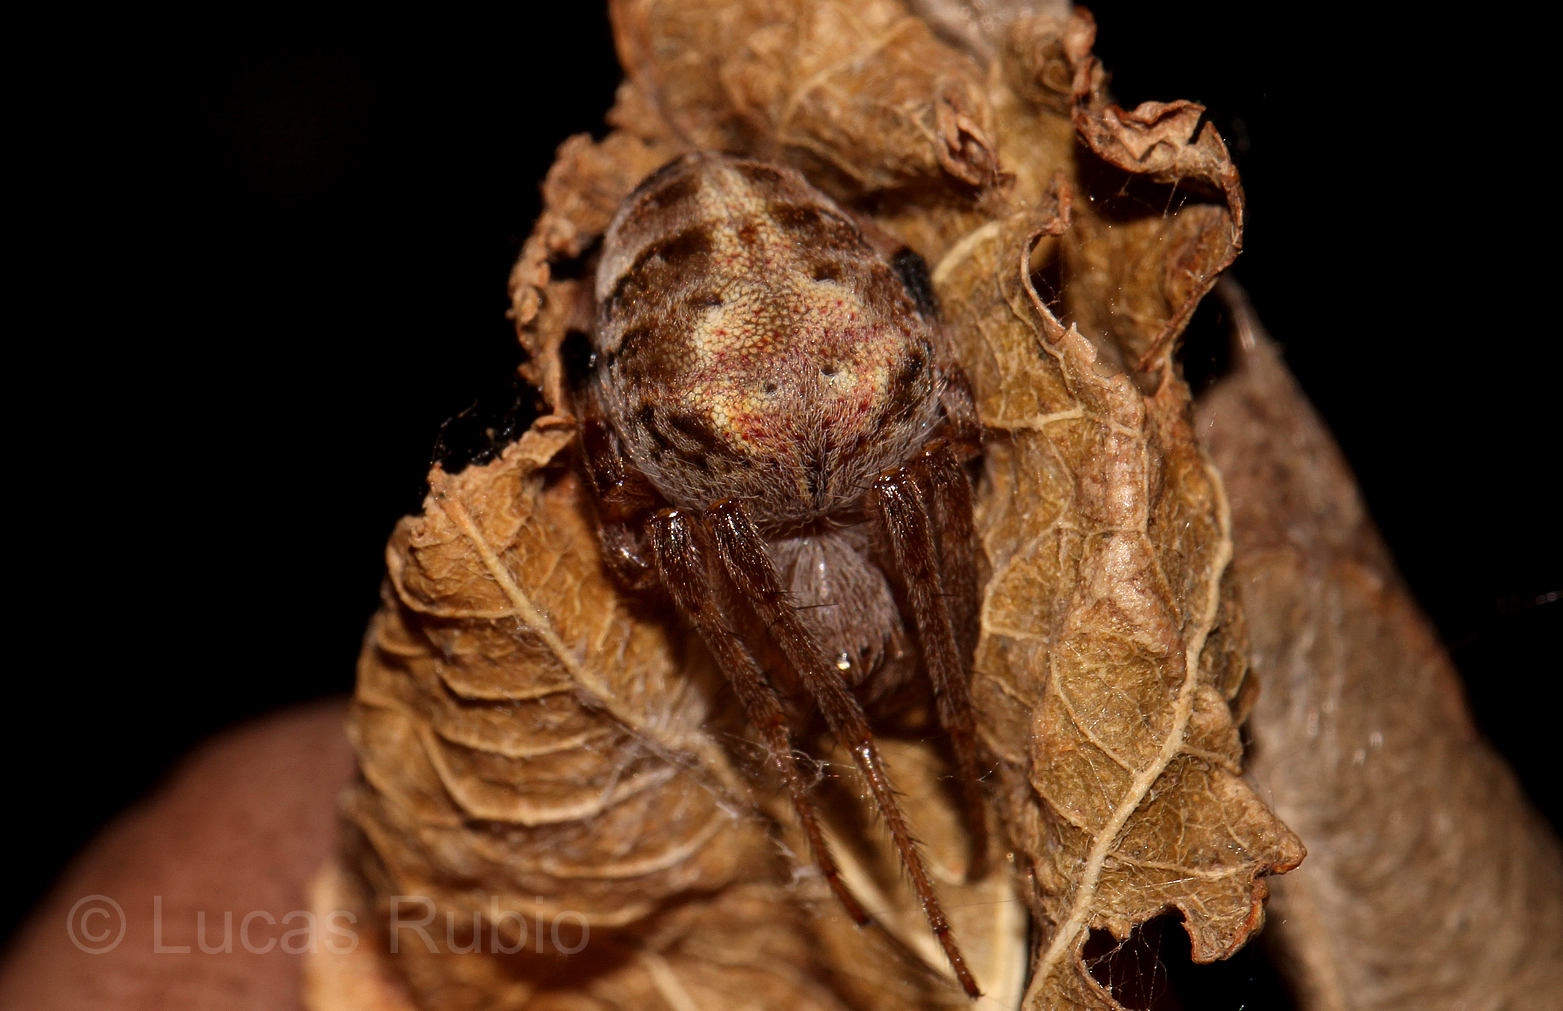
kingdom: Animalia
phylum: Arthropoda
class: Arachnida
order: Araneae
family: Araneidae
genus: Araneus
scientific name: Araneus omnicolor
